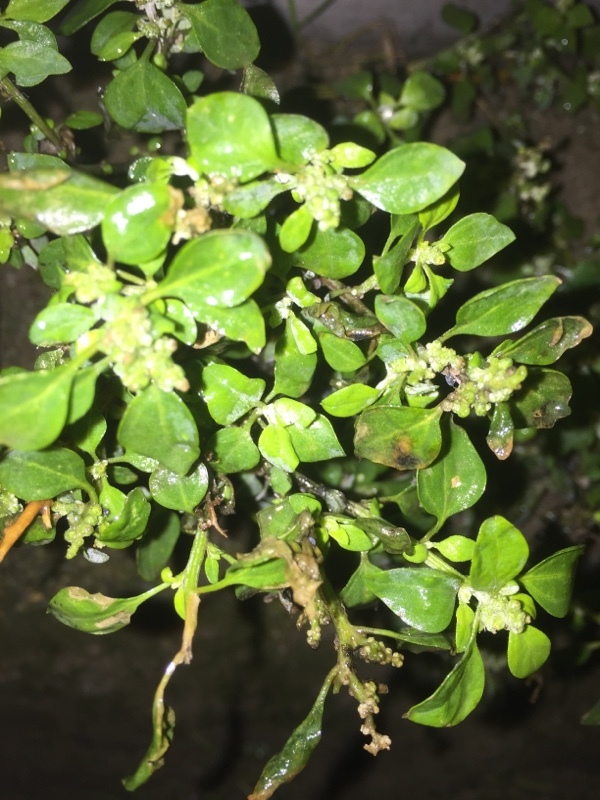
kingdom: Plantae
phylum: Tracheophyta
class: Magnoliopsida
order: Caryophyllales
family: Amaranthaceae
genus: Chenopodium
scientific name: Chenopodium vulvaria
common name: Stinking goosefoot
